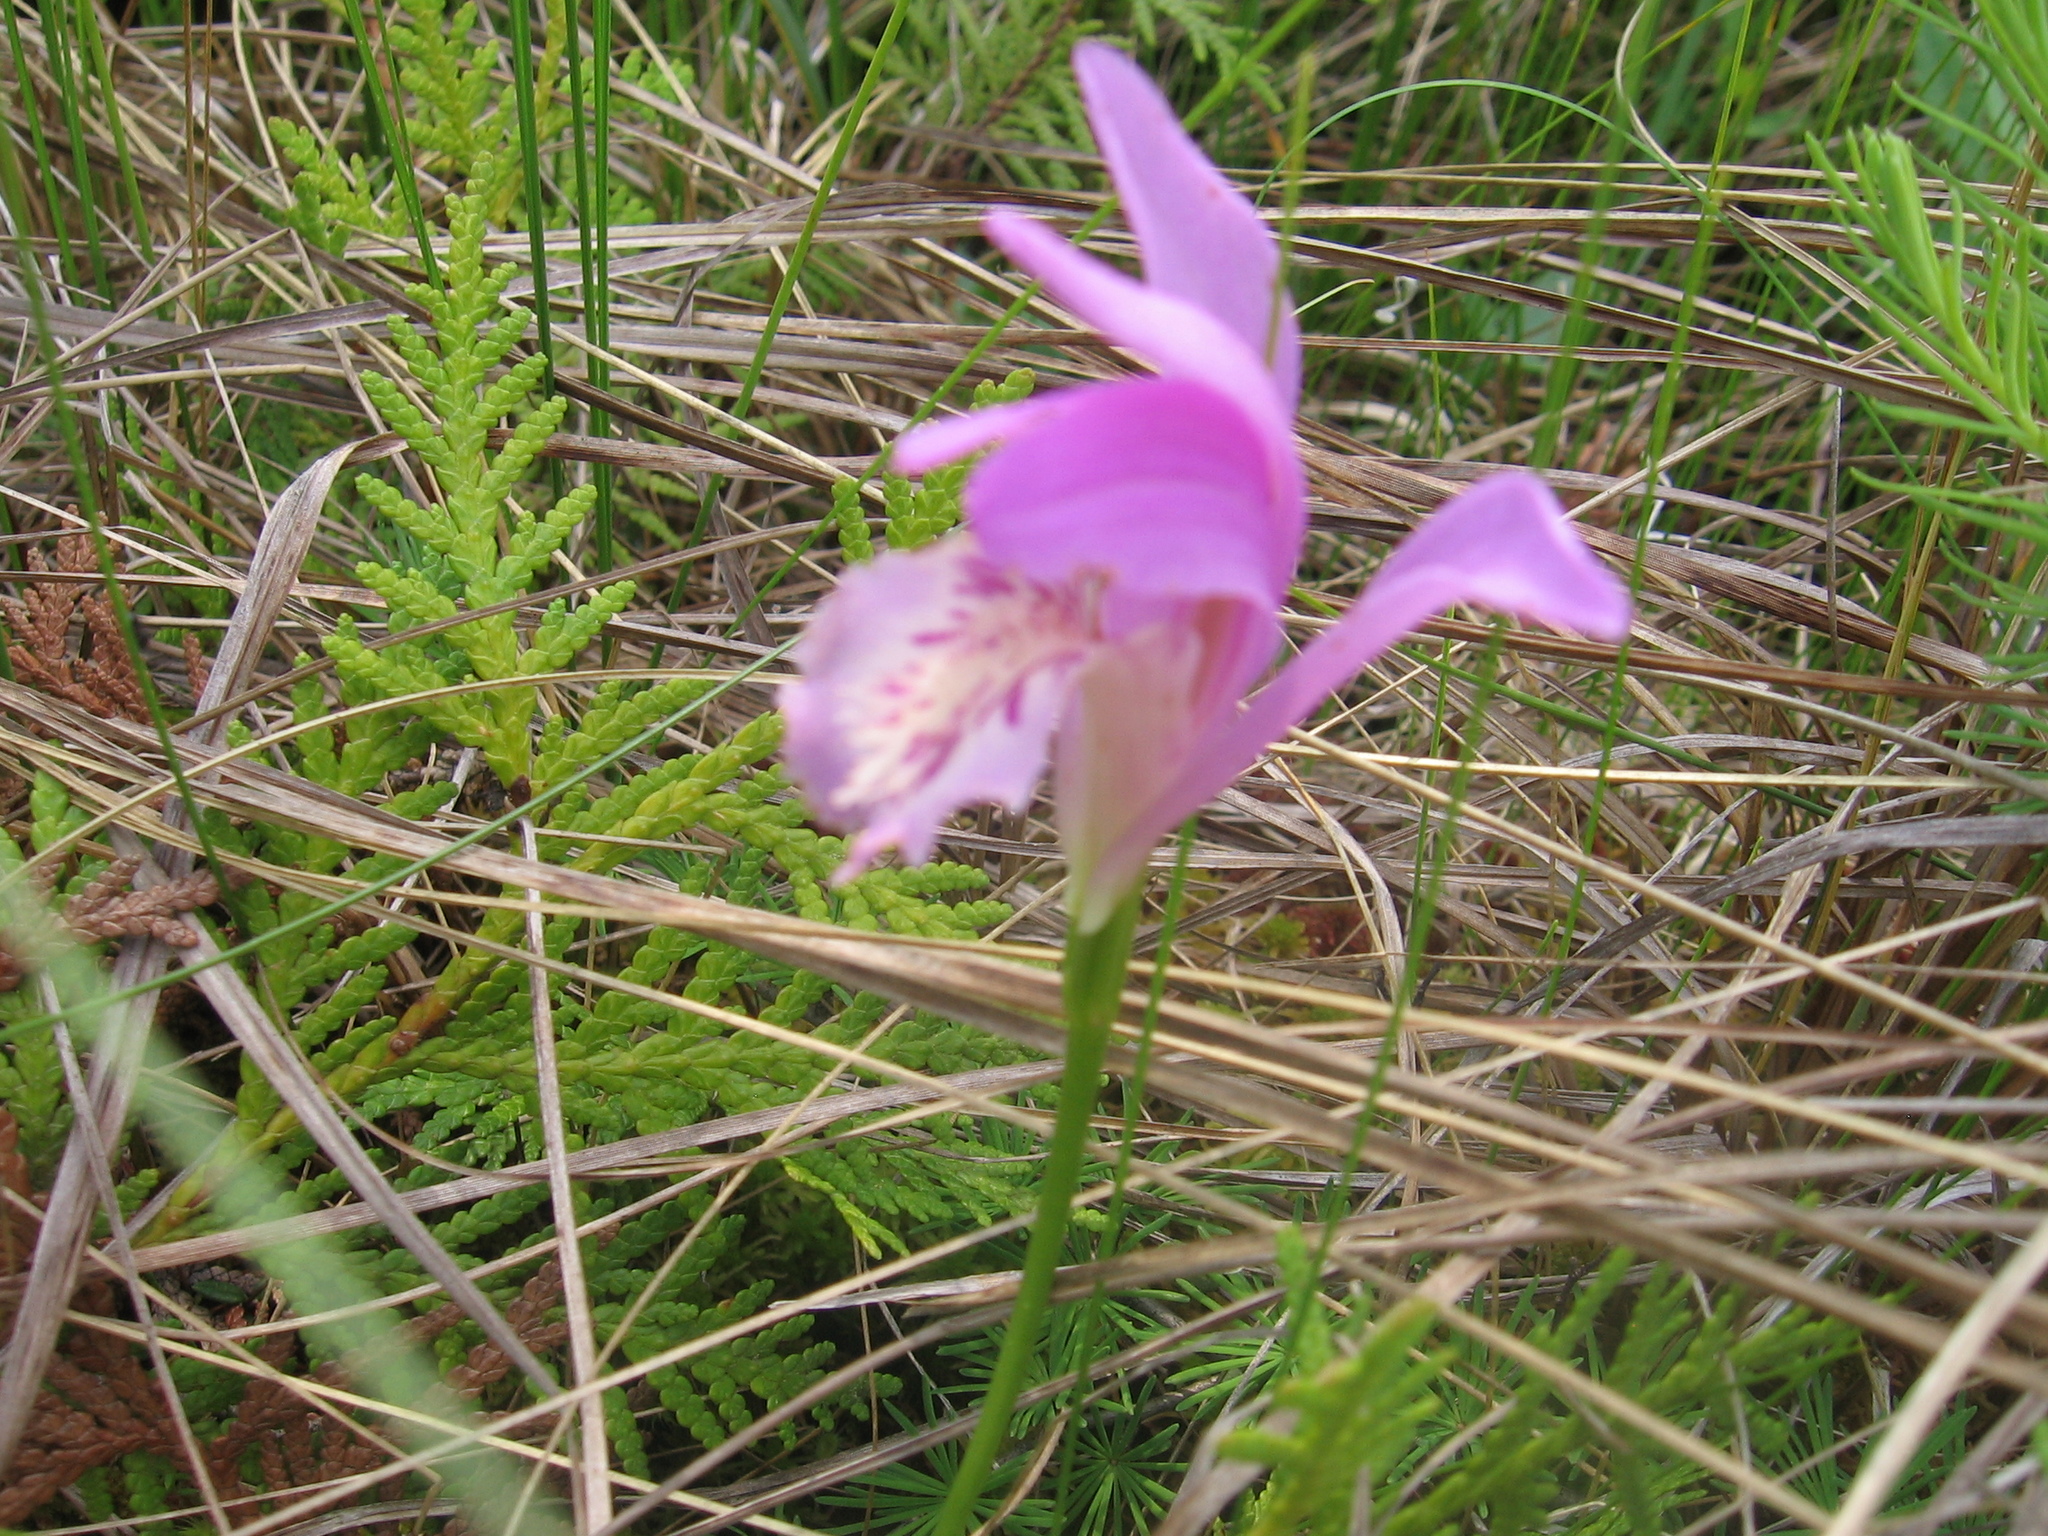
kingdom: Plantae
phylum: Tracheophyta
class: Liliopsida
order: Asparagales
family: Orchidaceae
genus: Arethusa
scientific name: Arethusa bulbosa
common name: Arethusa
